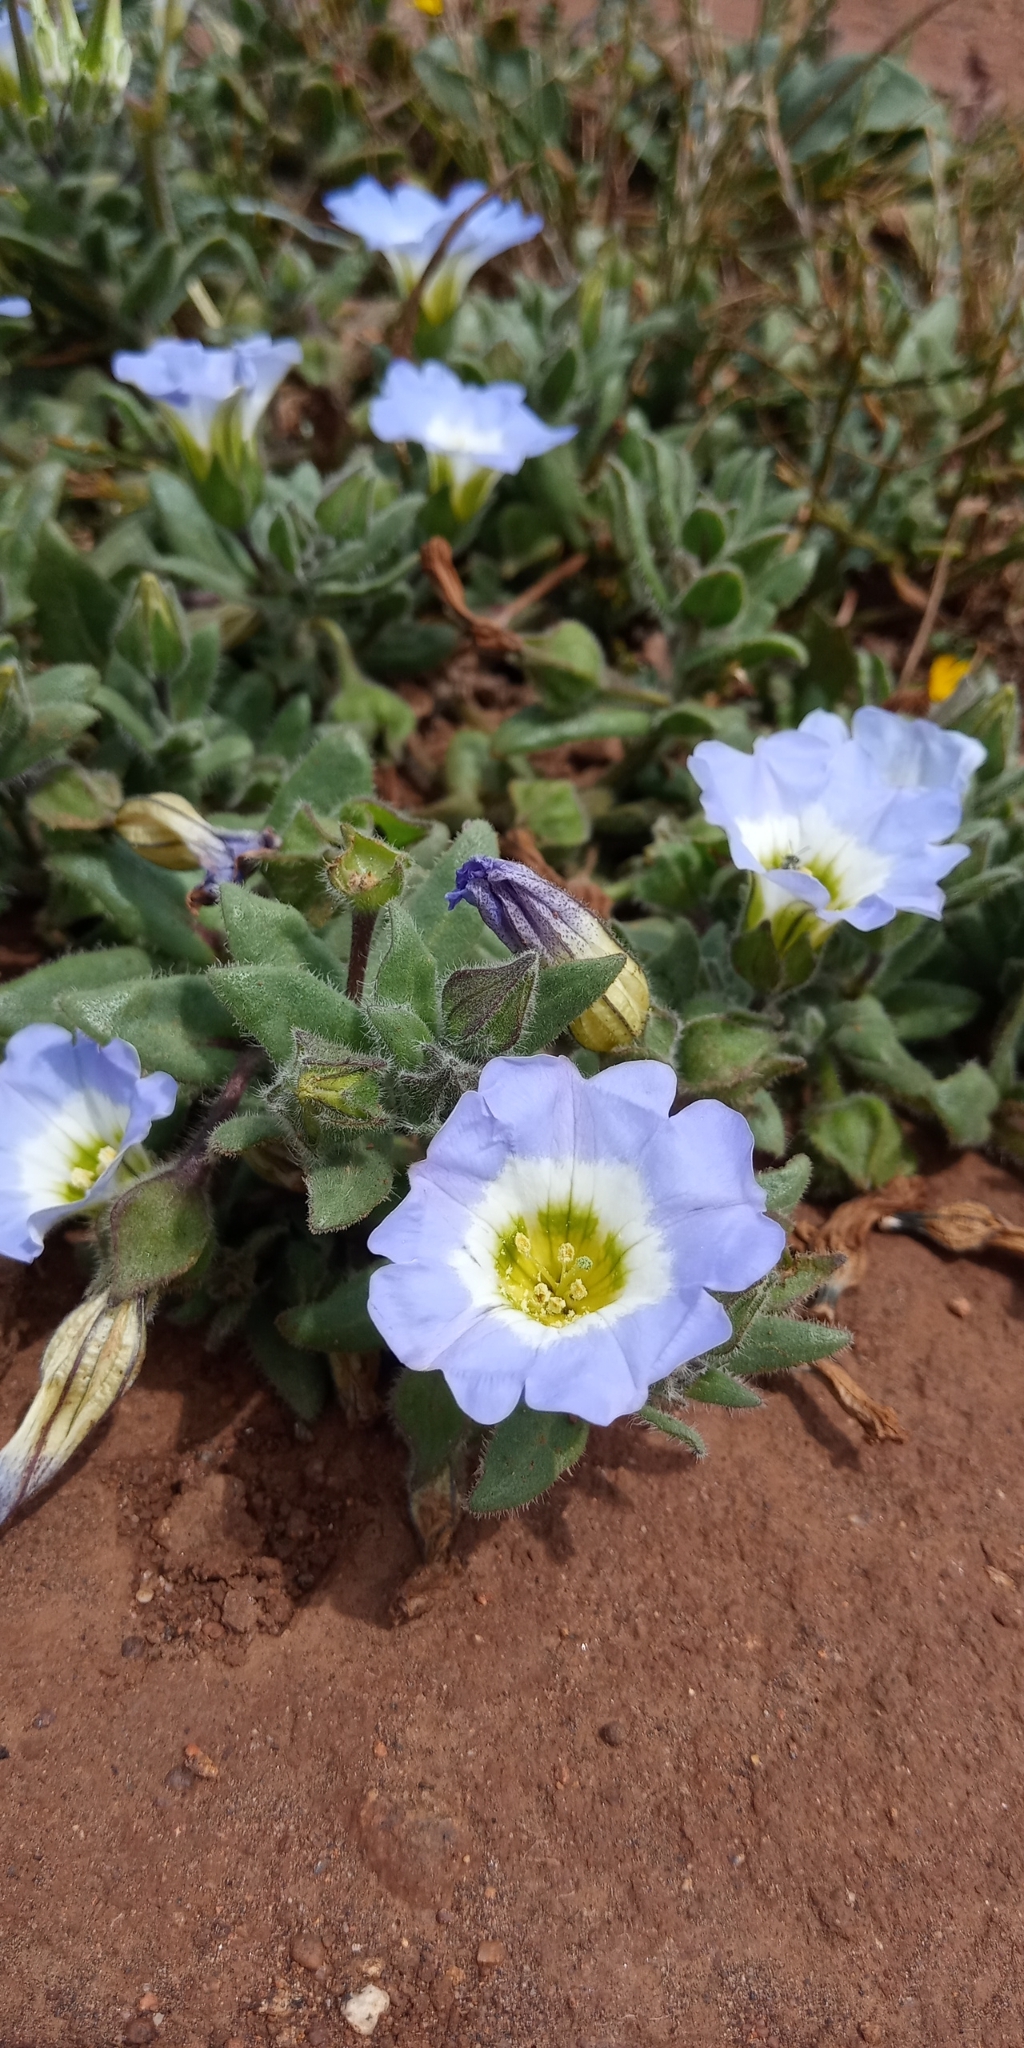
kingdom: Plantae
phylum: Tracheophyta
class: Magnoliopsida
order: Solanales
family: Solanaceae
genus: Nolana
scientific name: Nolana paradoxa
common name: Chilean-bellflower
